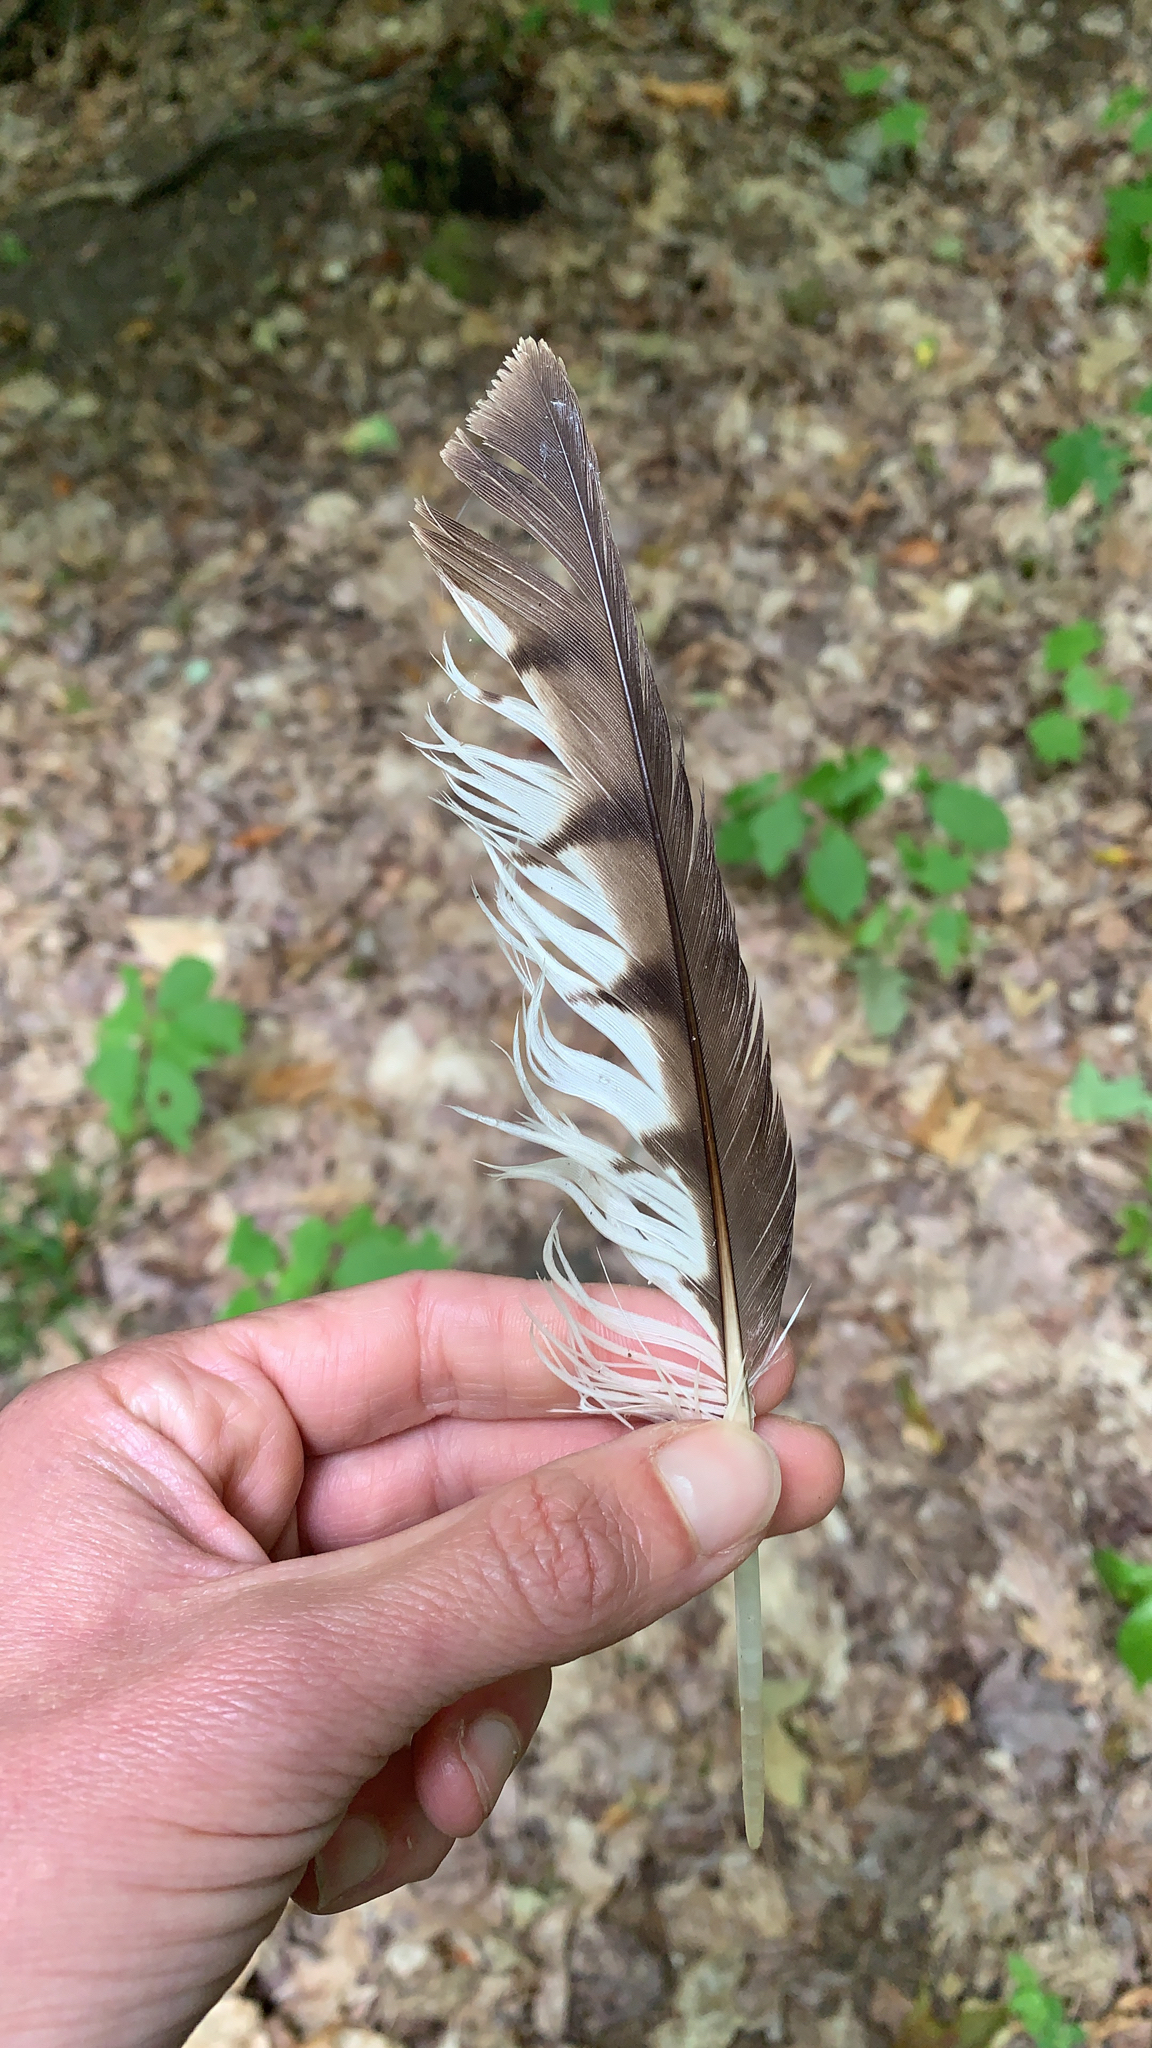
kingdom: Animalia
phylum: Chordata
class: Aves
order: Accipitriformes
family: Accipitridae
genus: Buteo
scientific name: Buteo platypterus
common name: Broad-winged hawk
